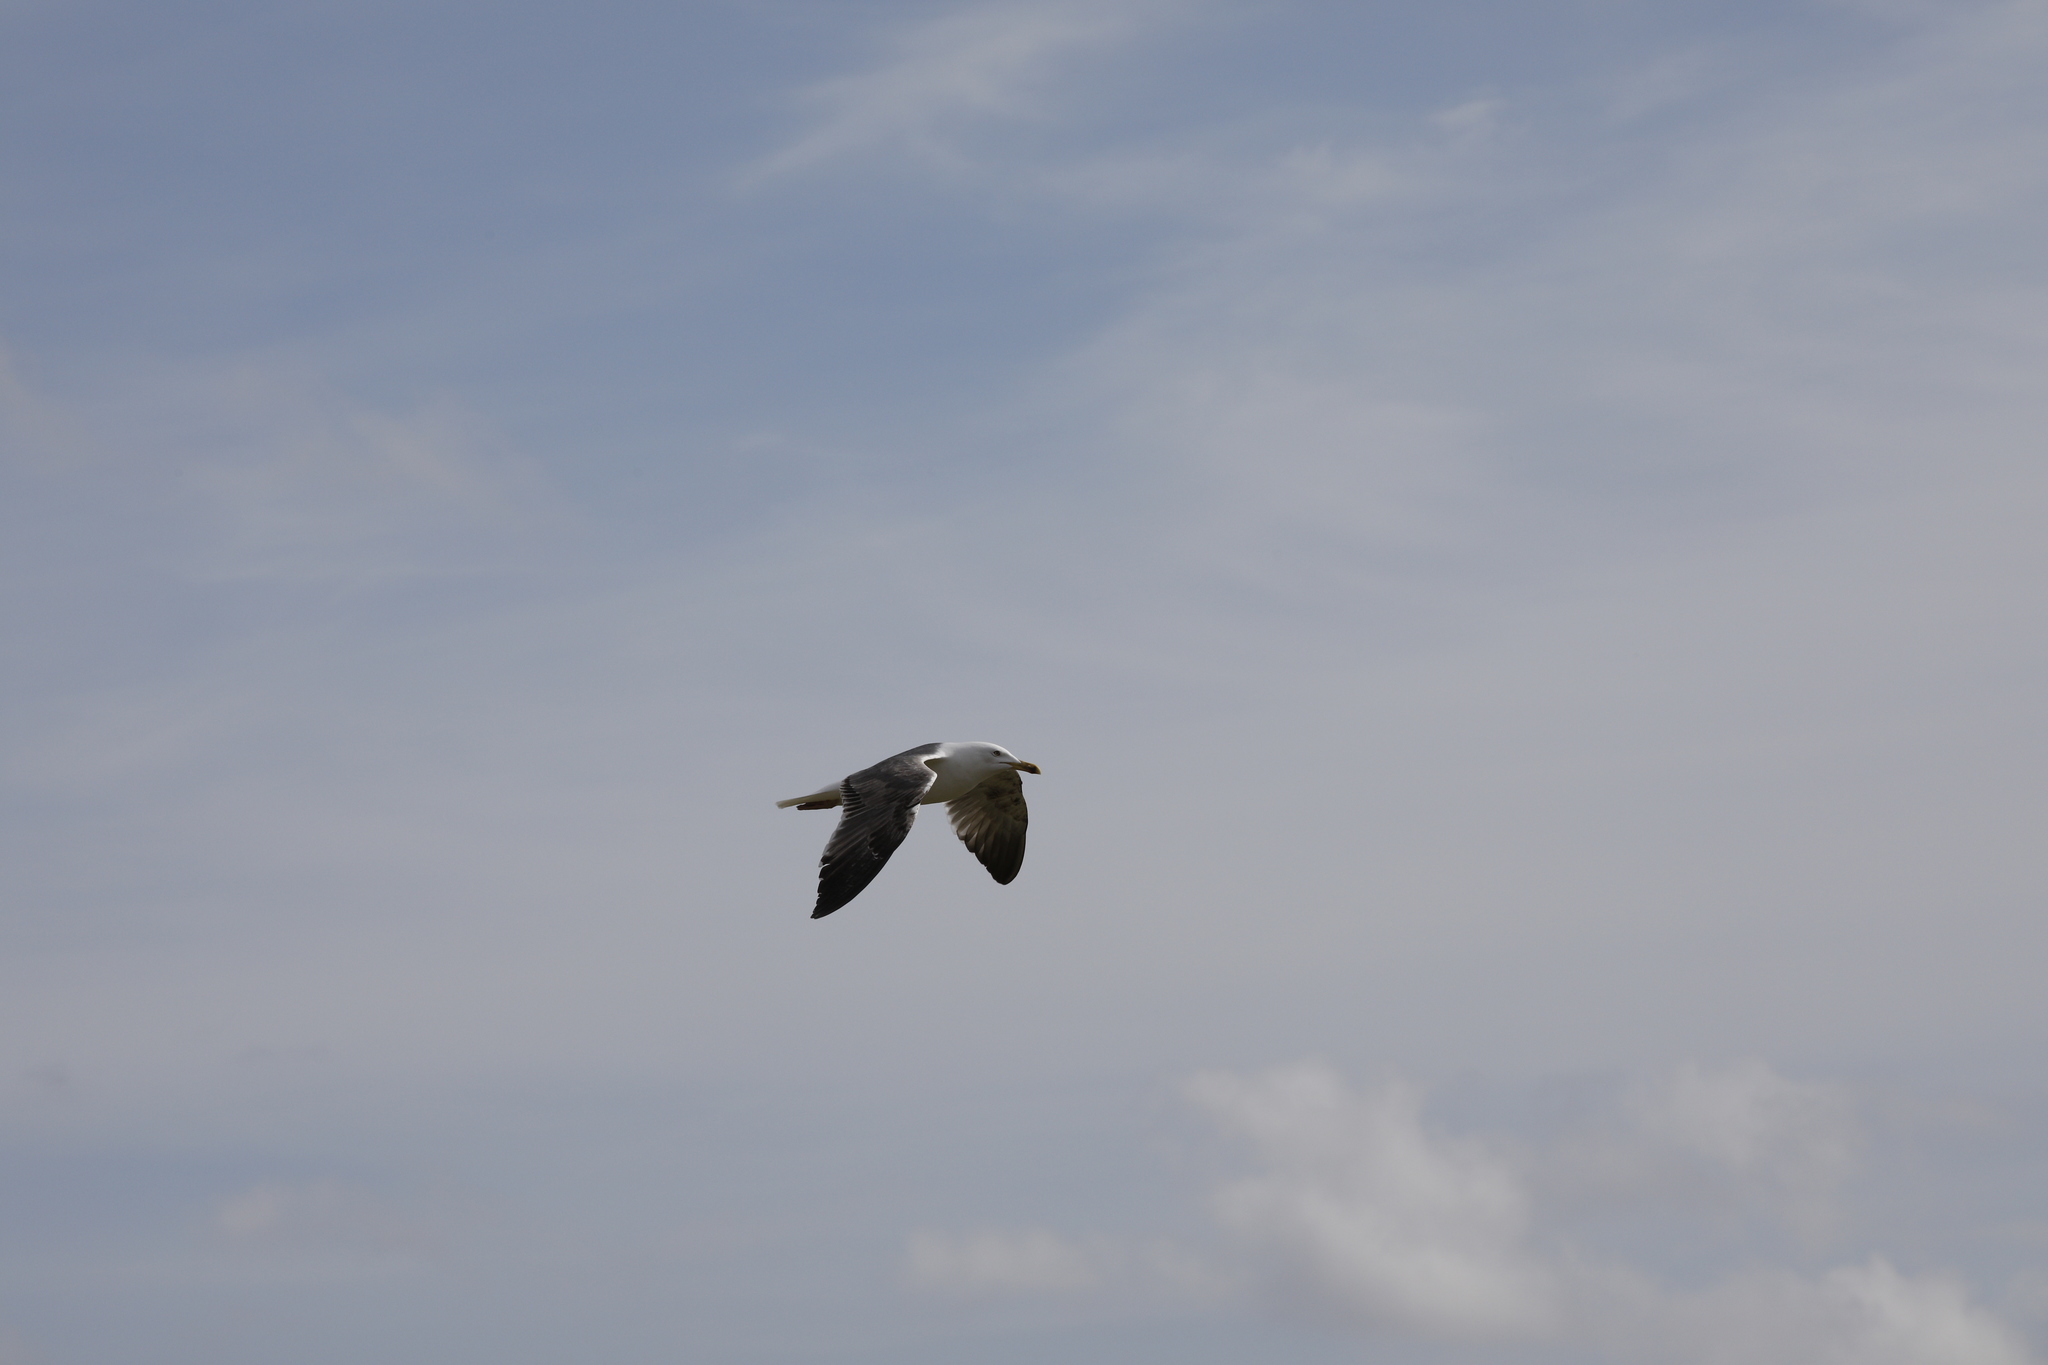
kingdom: Animalia
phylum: Chordata
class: Aves
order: Charadriiformes
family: Laridae
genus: Larus
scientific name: Larus fuscus
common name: Lesser black-backed gull
